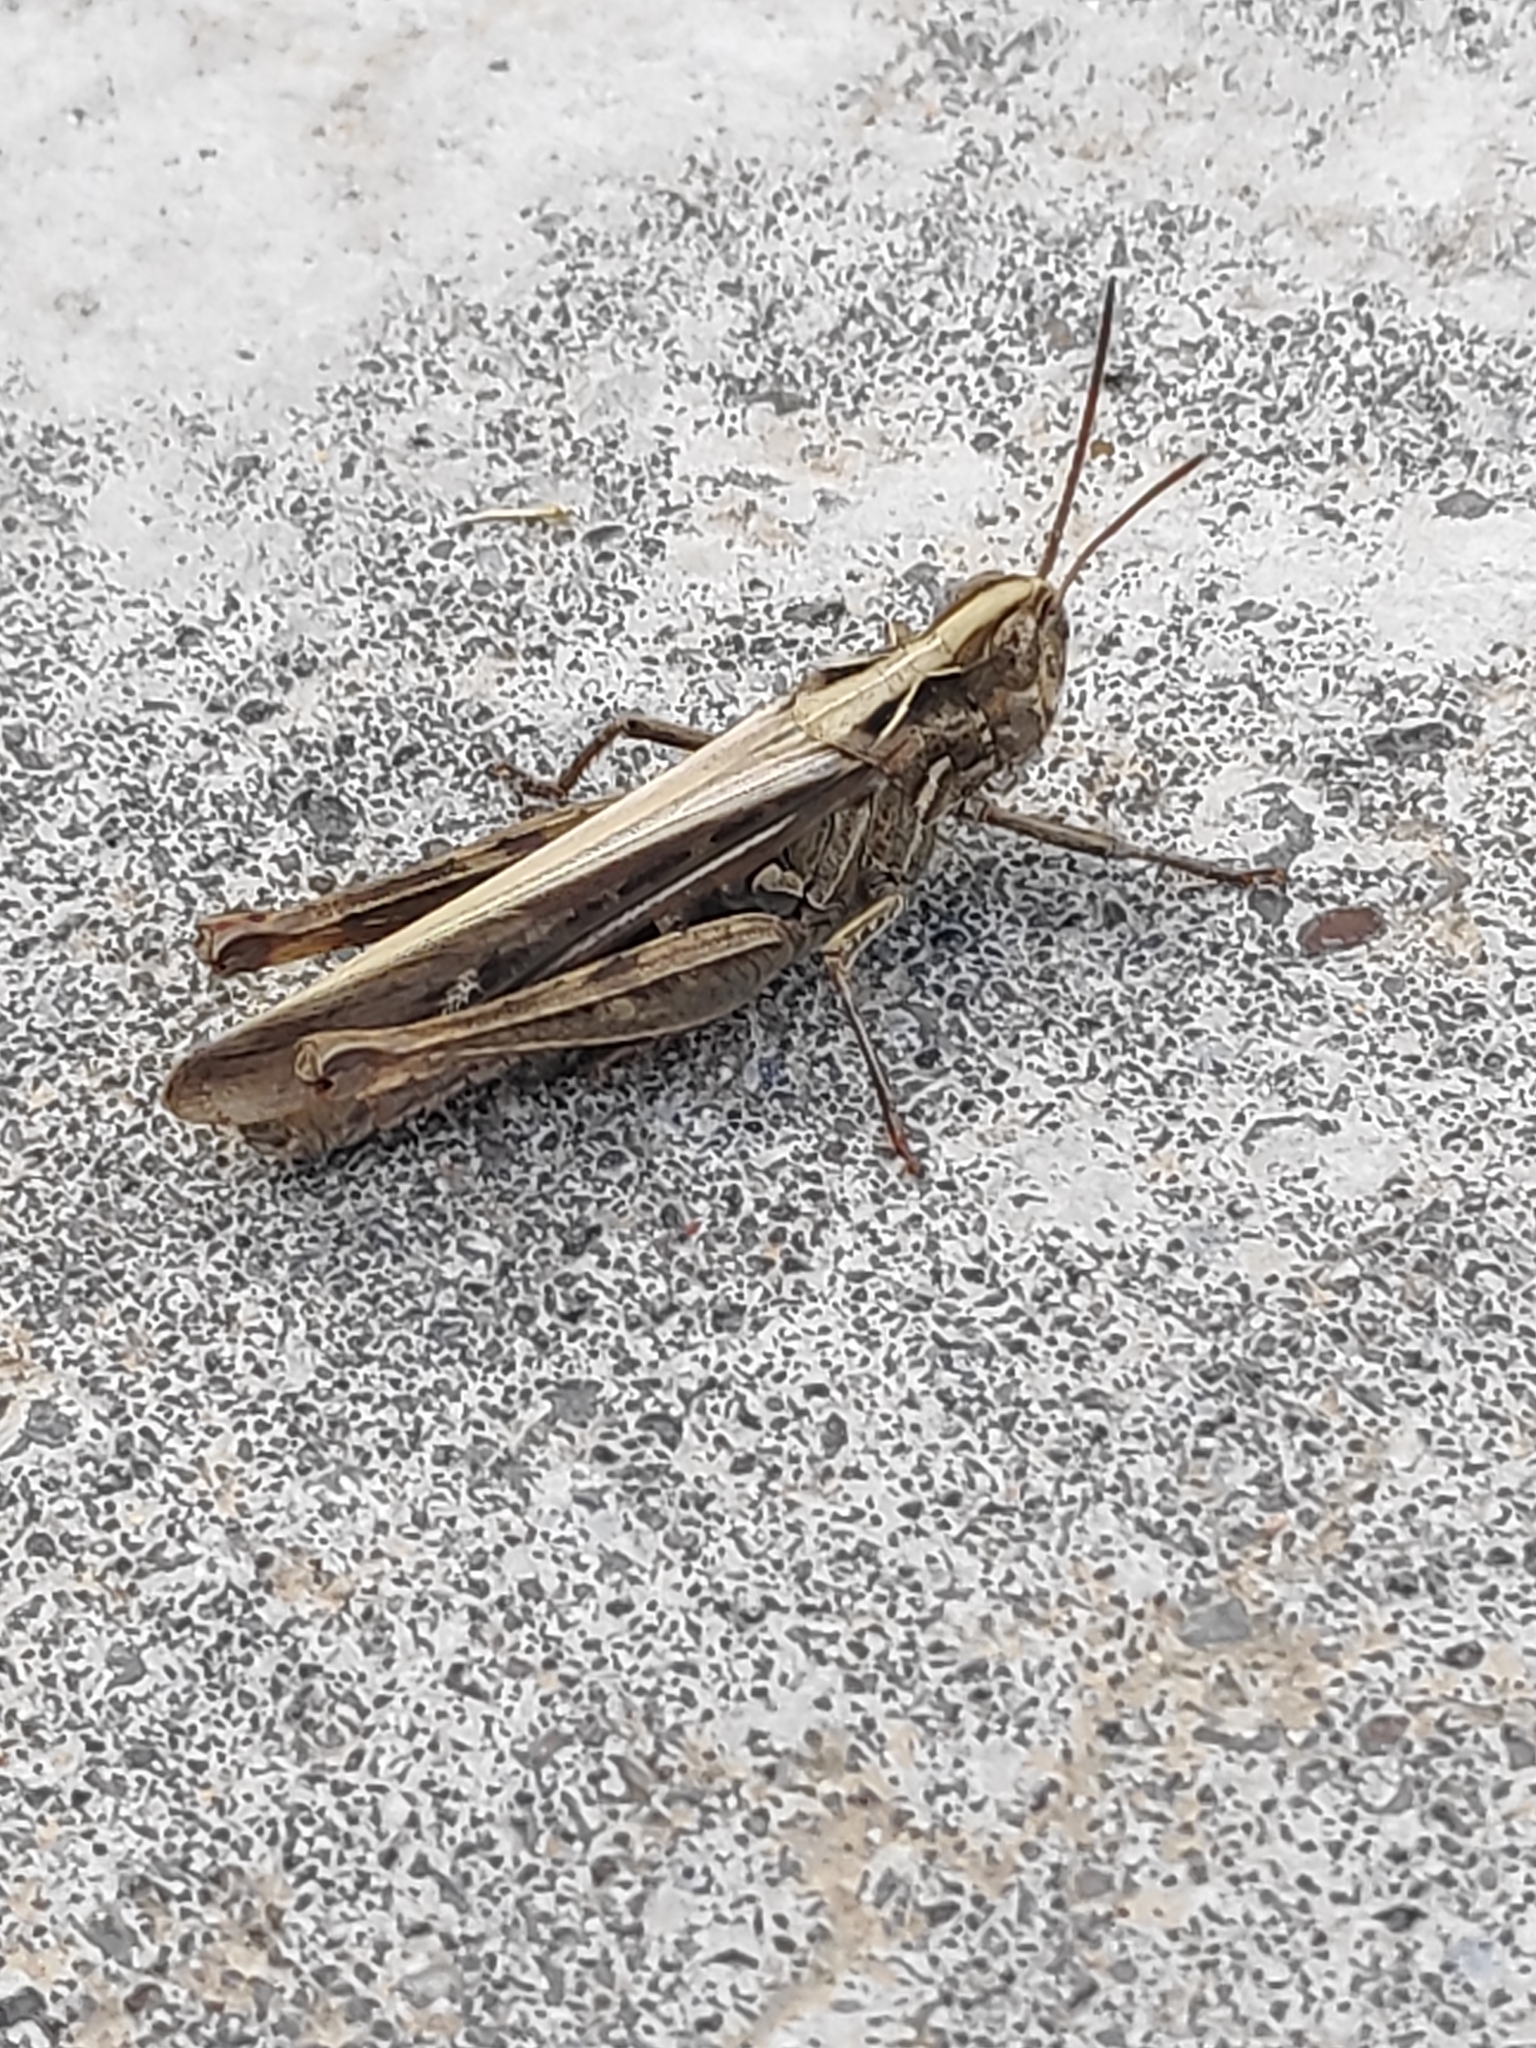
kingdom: Animalia
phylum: Arthropoda
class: Insecta
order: Orthoptera
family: Acrididae
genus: Chorthippus
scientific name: Chorthippus brunneus
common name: Field grasshopper
